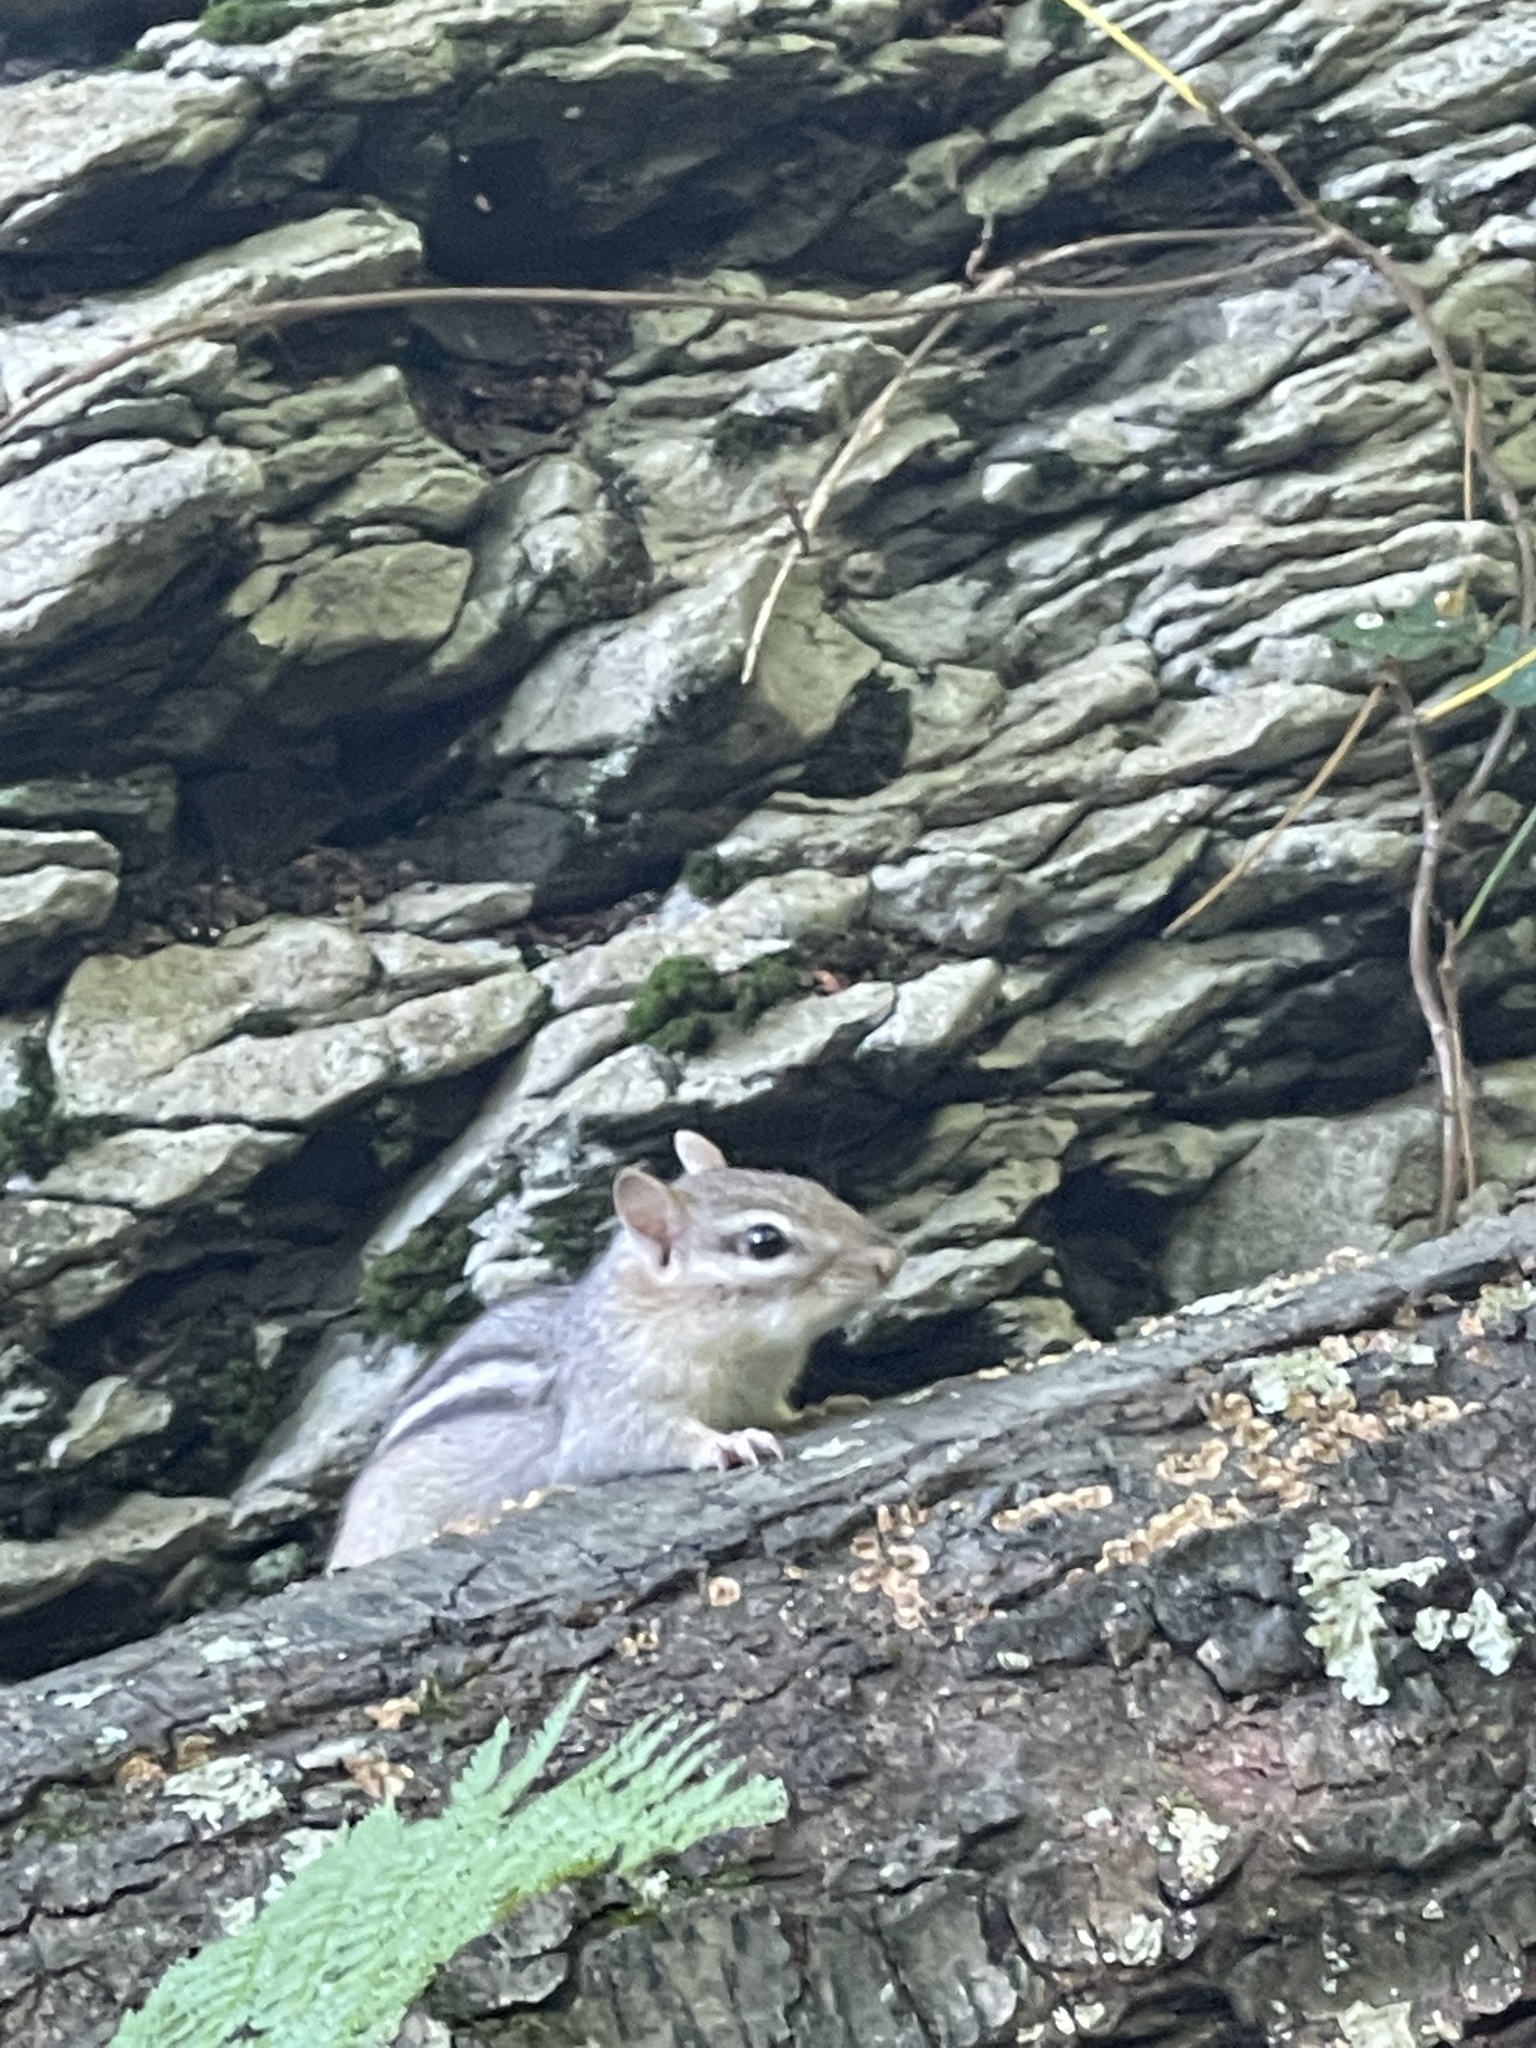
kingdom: Animalia
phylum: Chordata
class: Mammalia
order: Rodentia
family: Sciuridae
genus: Tamias
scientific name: Tamias striatus
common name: Eastern chipmunk
